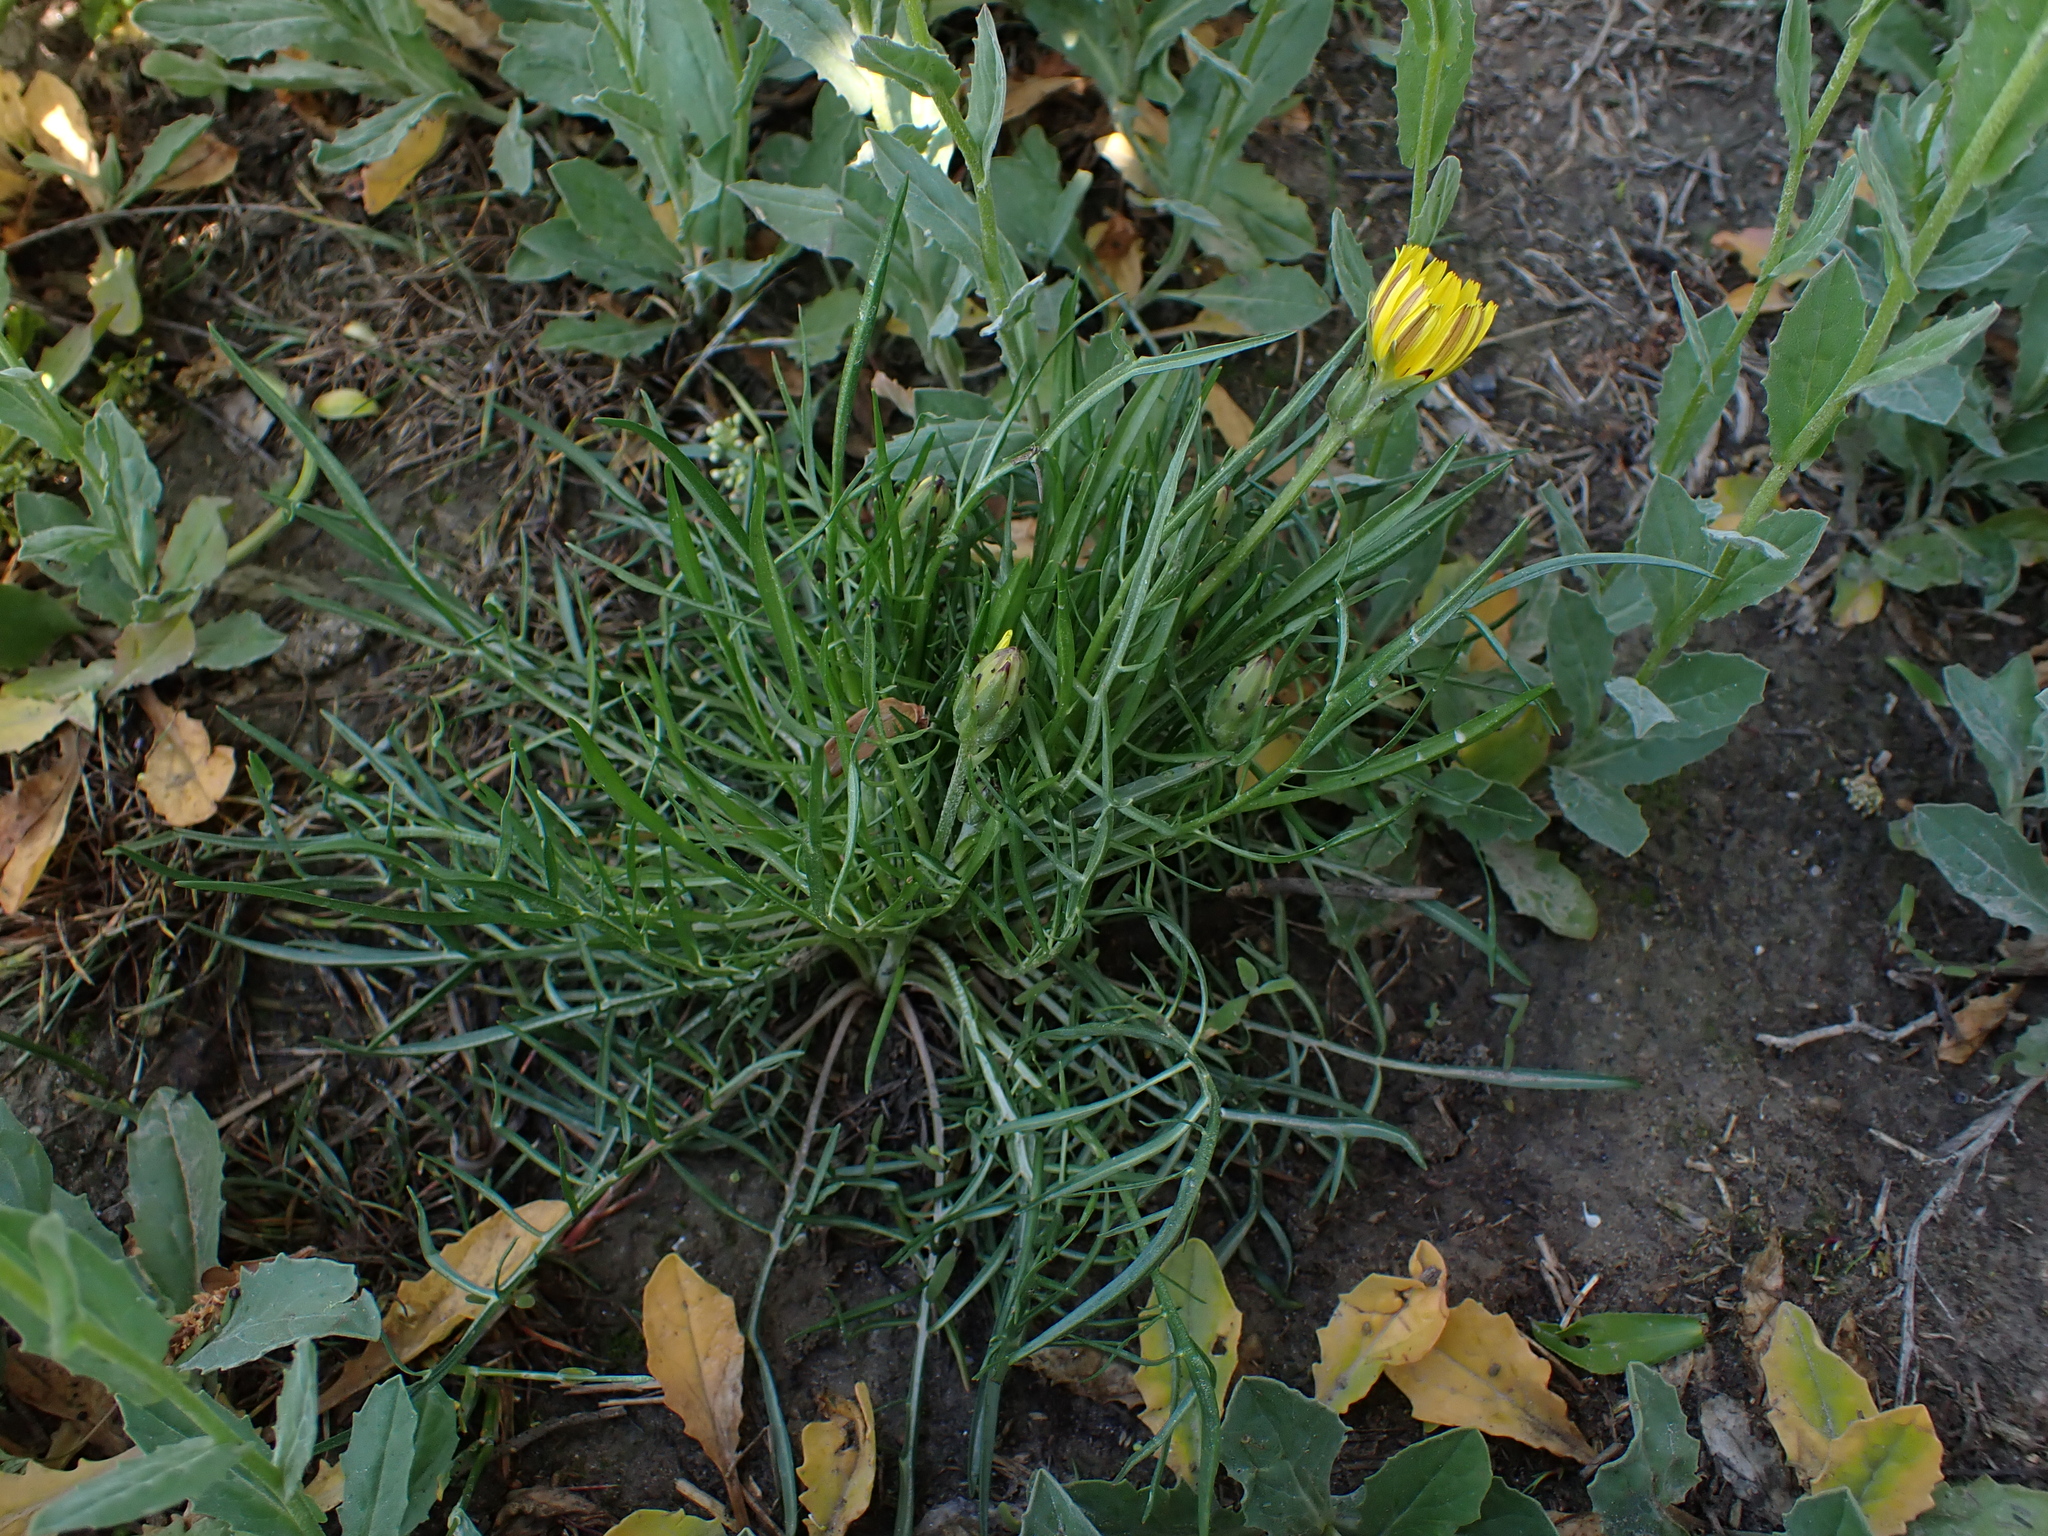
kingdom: Plantae
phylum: Tracheophyta
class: Magnoliopsida
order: Asterales
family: Asteraceae
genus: Scorzonera
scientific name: Scorzonera cana
